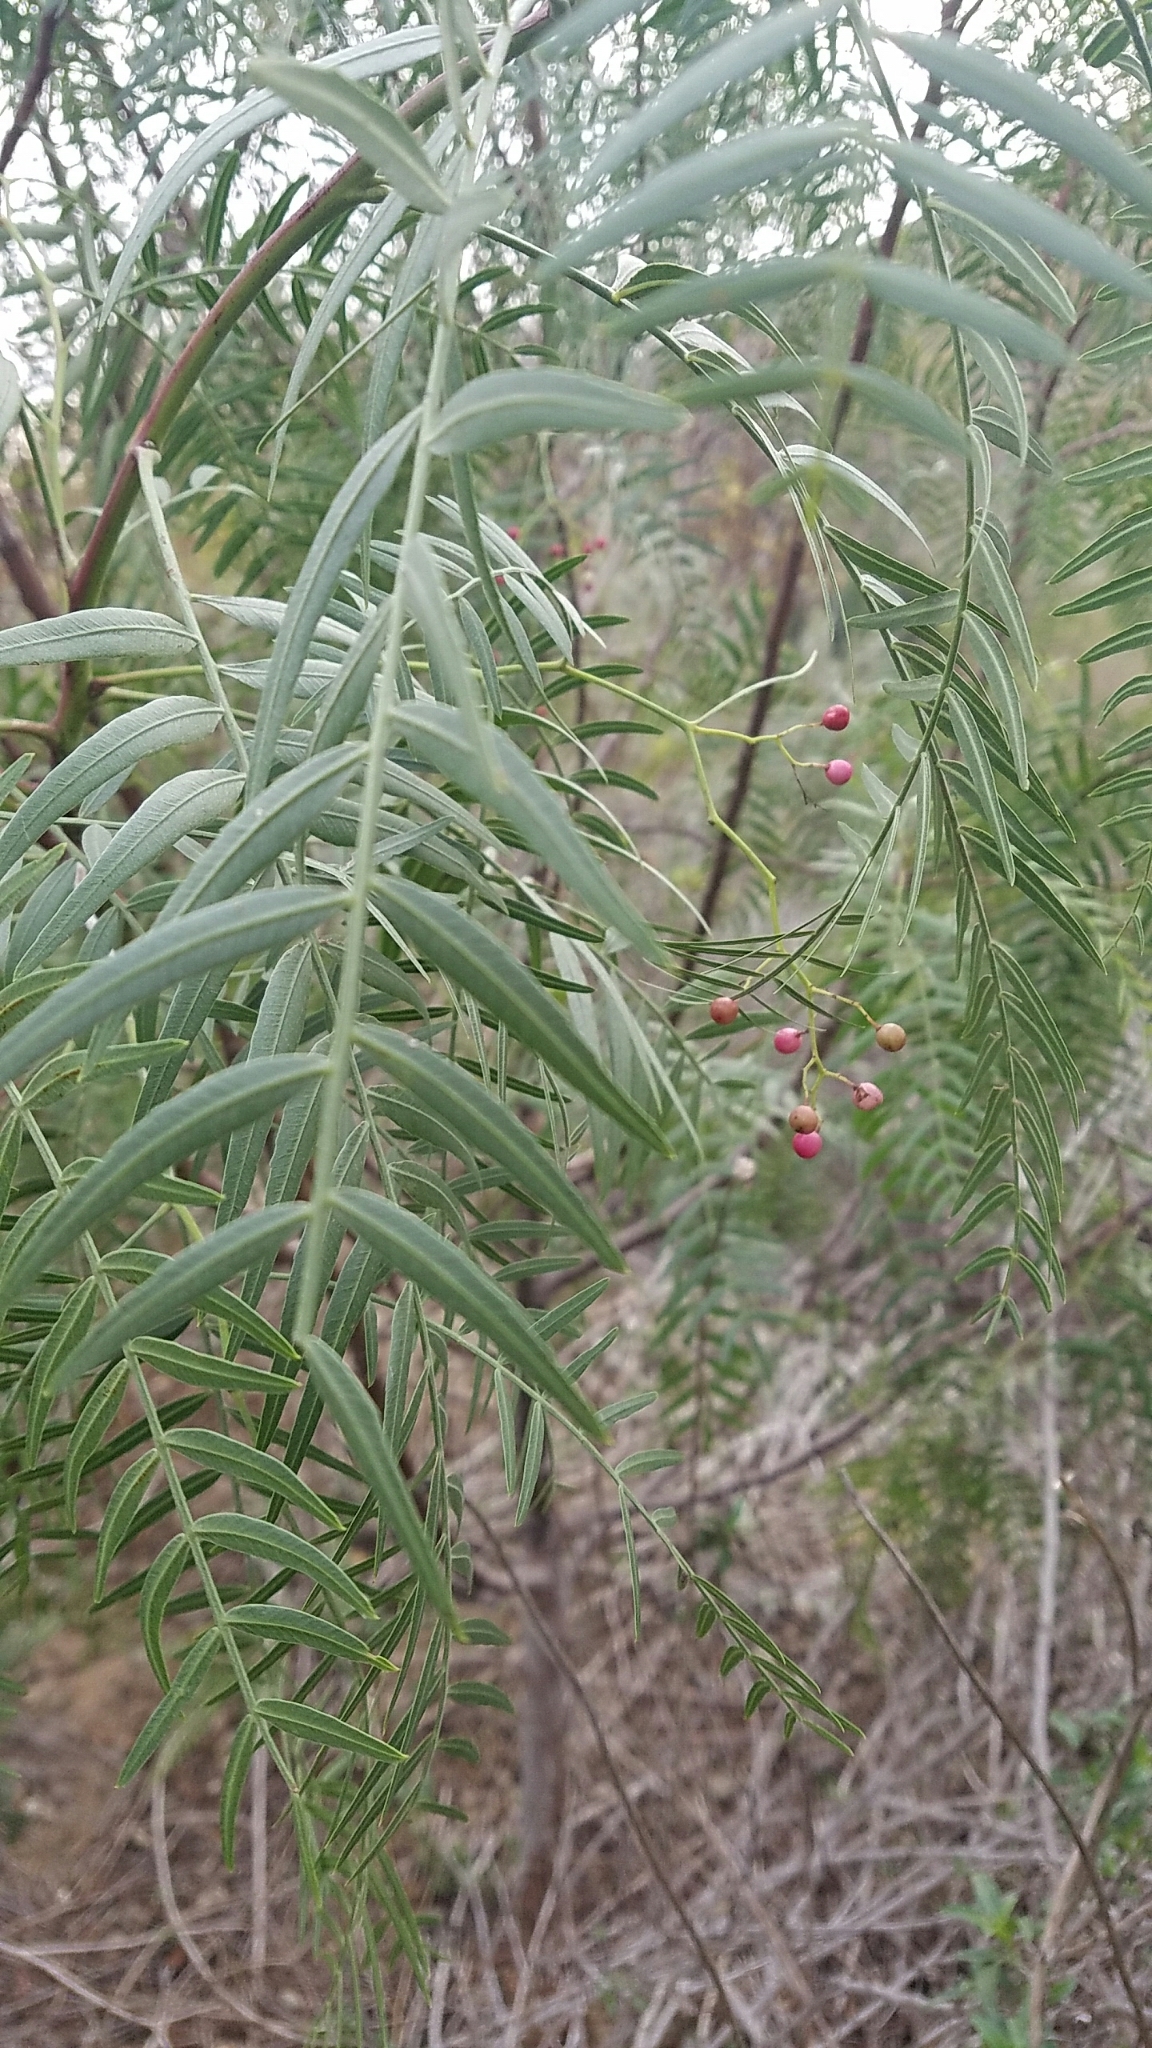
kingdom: Plantae
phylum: Tracheophyta
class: Magnoliopsida
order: Sapindales
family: Anacardiaceae
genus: Schinus
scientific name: Schinus molle
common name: Peruvian peppertree
